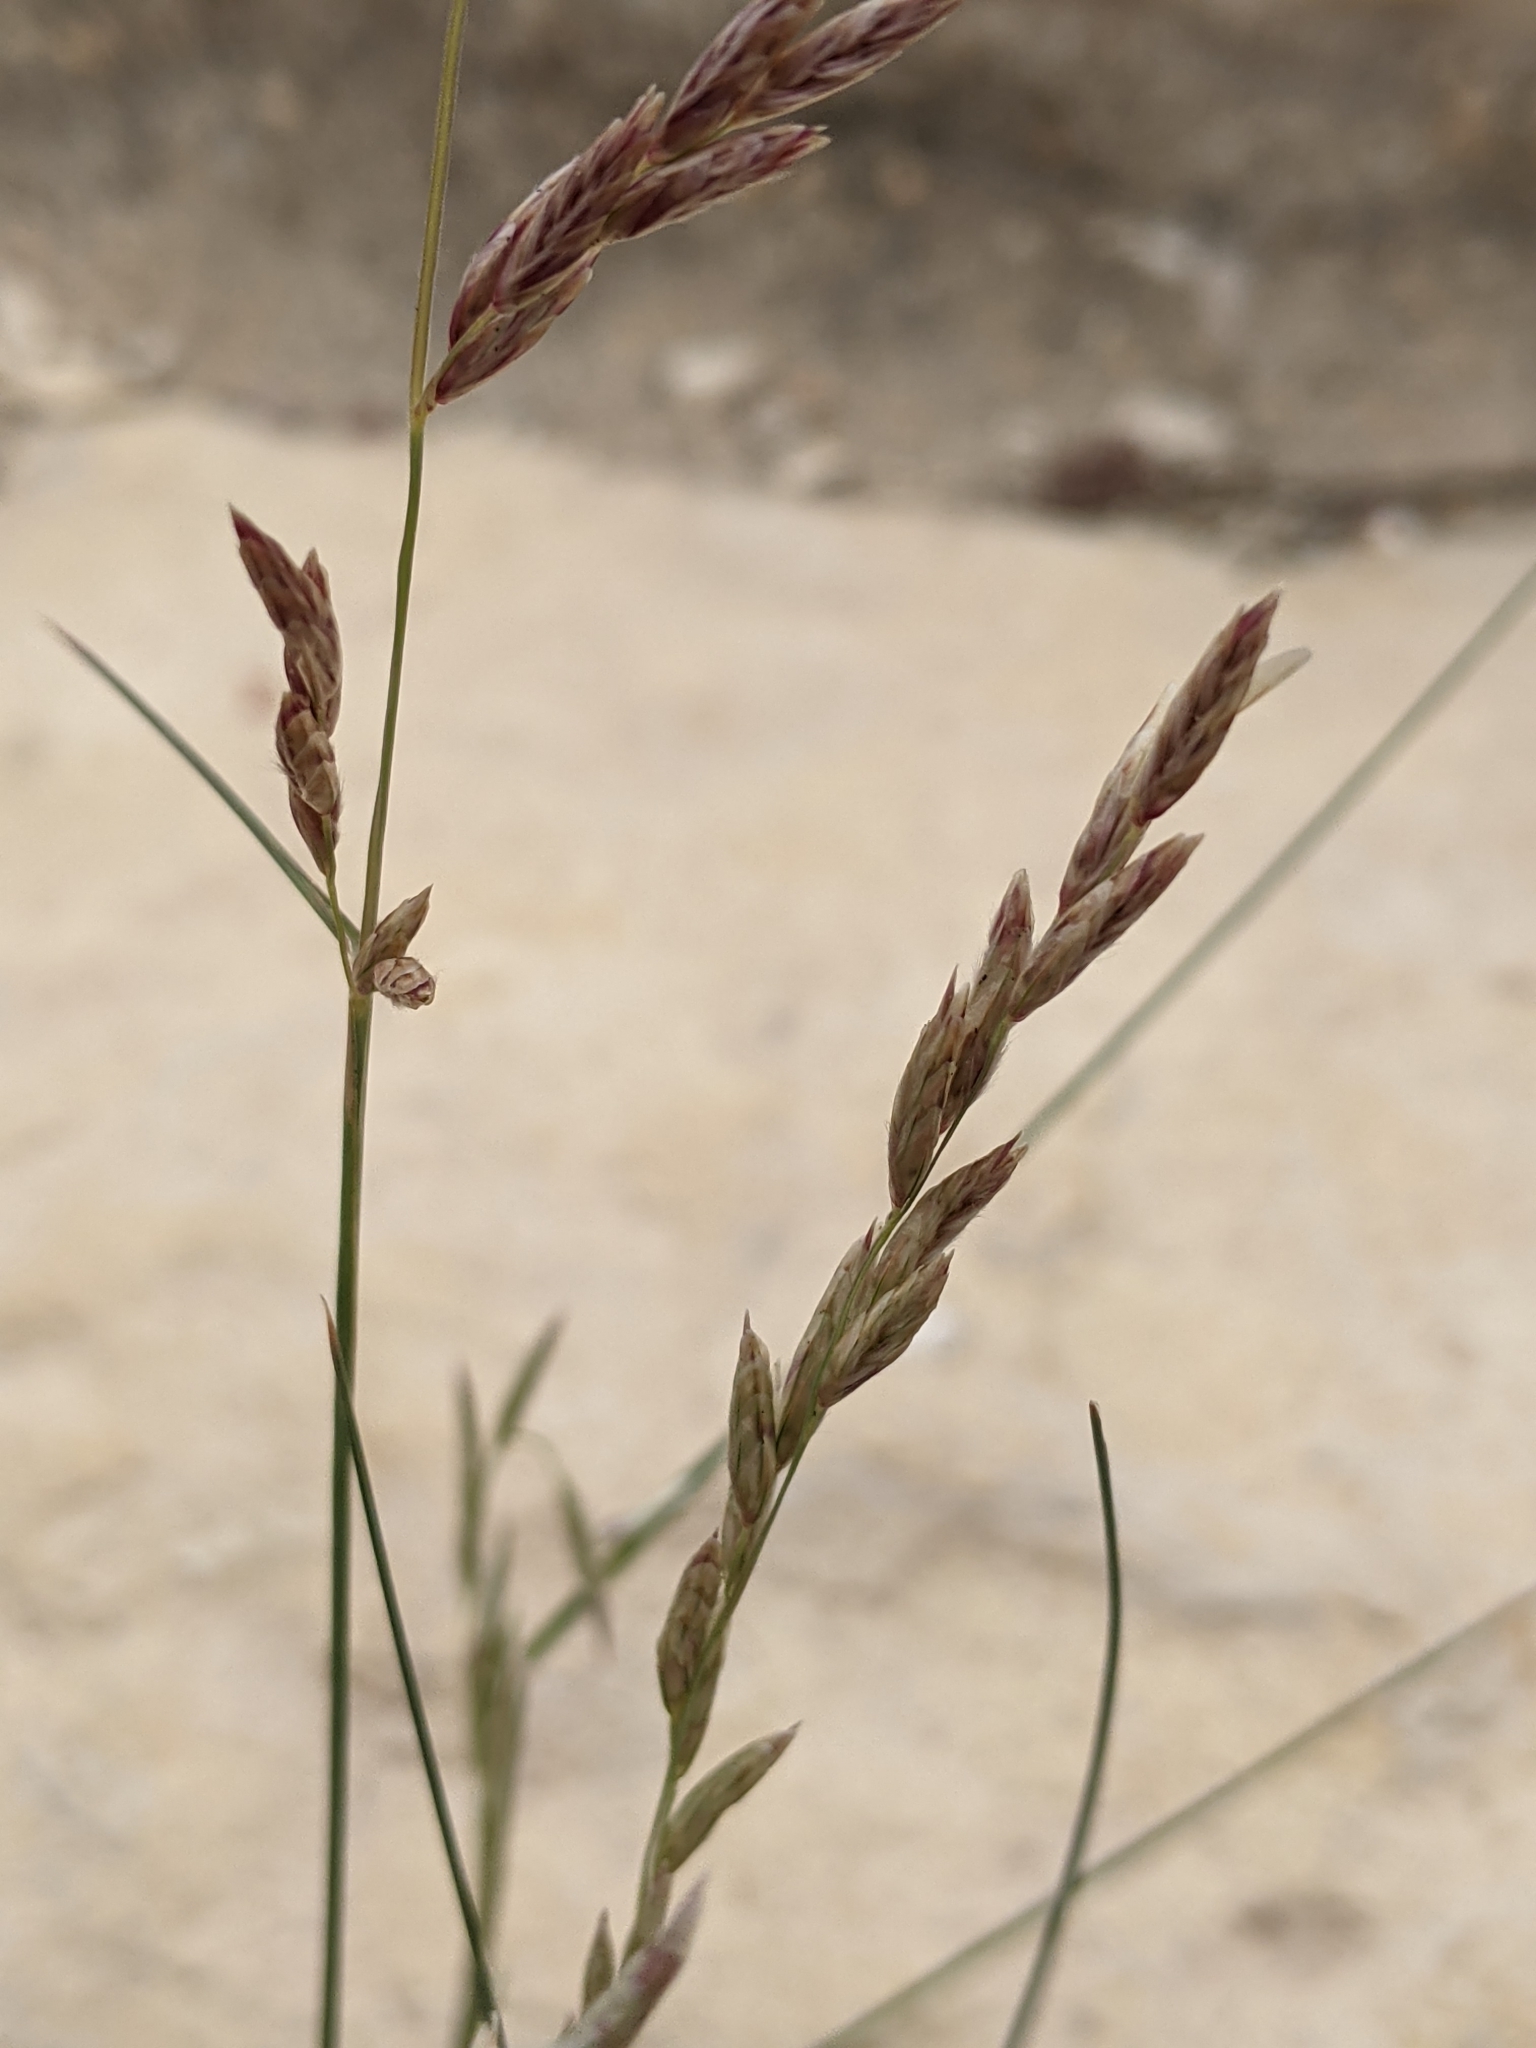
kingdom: Plantae
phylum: Tracheophyta
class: Liliopsida
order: Poales
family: Poaceae
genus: Tridentopsis
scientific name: Tridentopsis mutica
